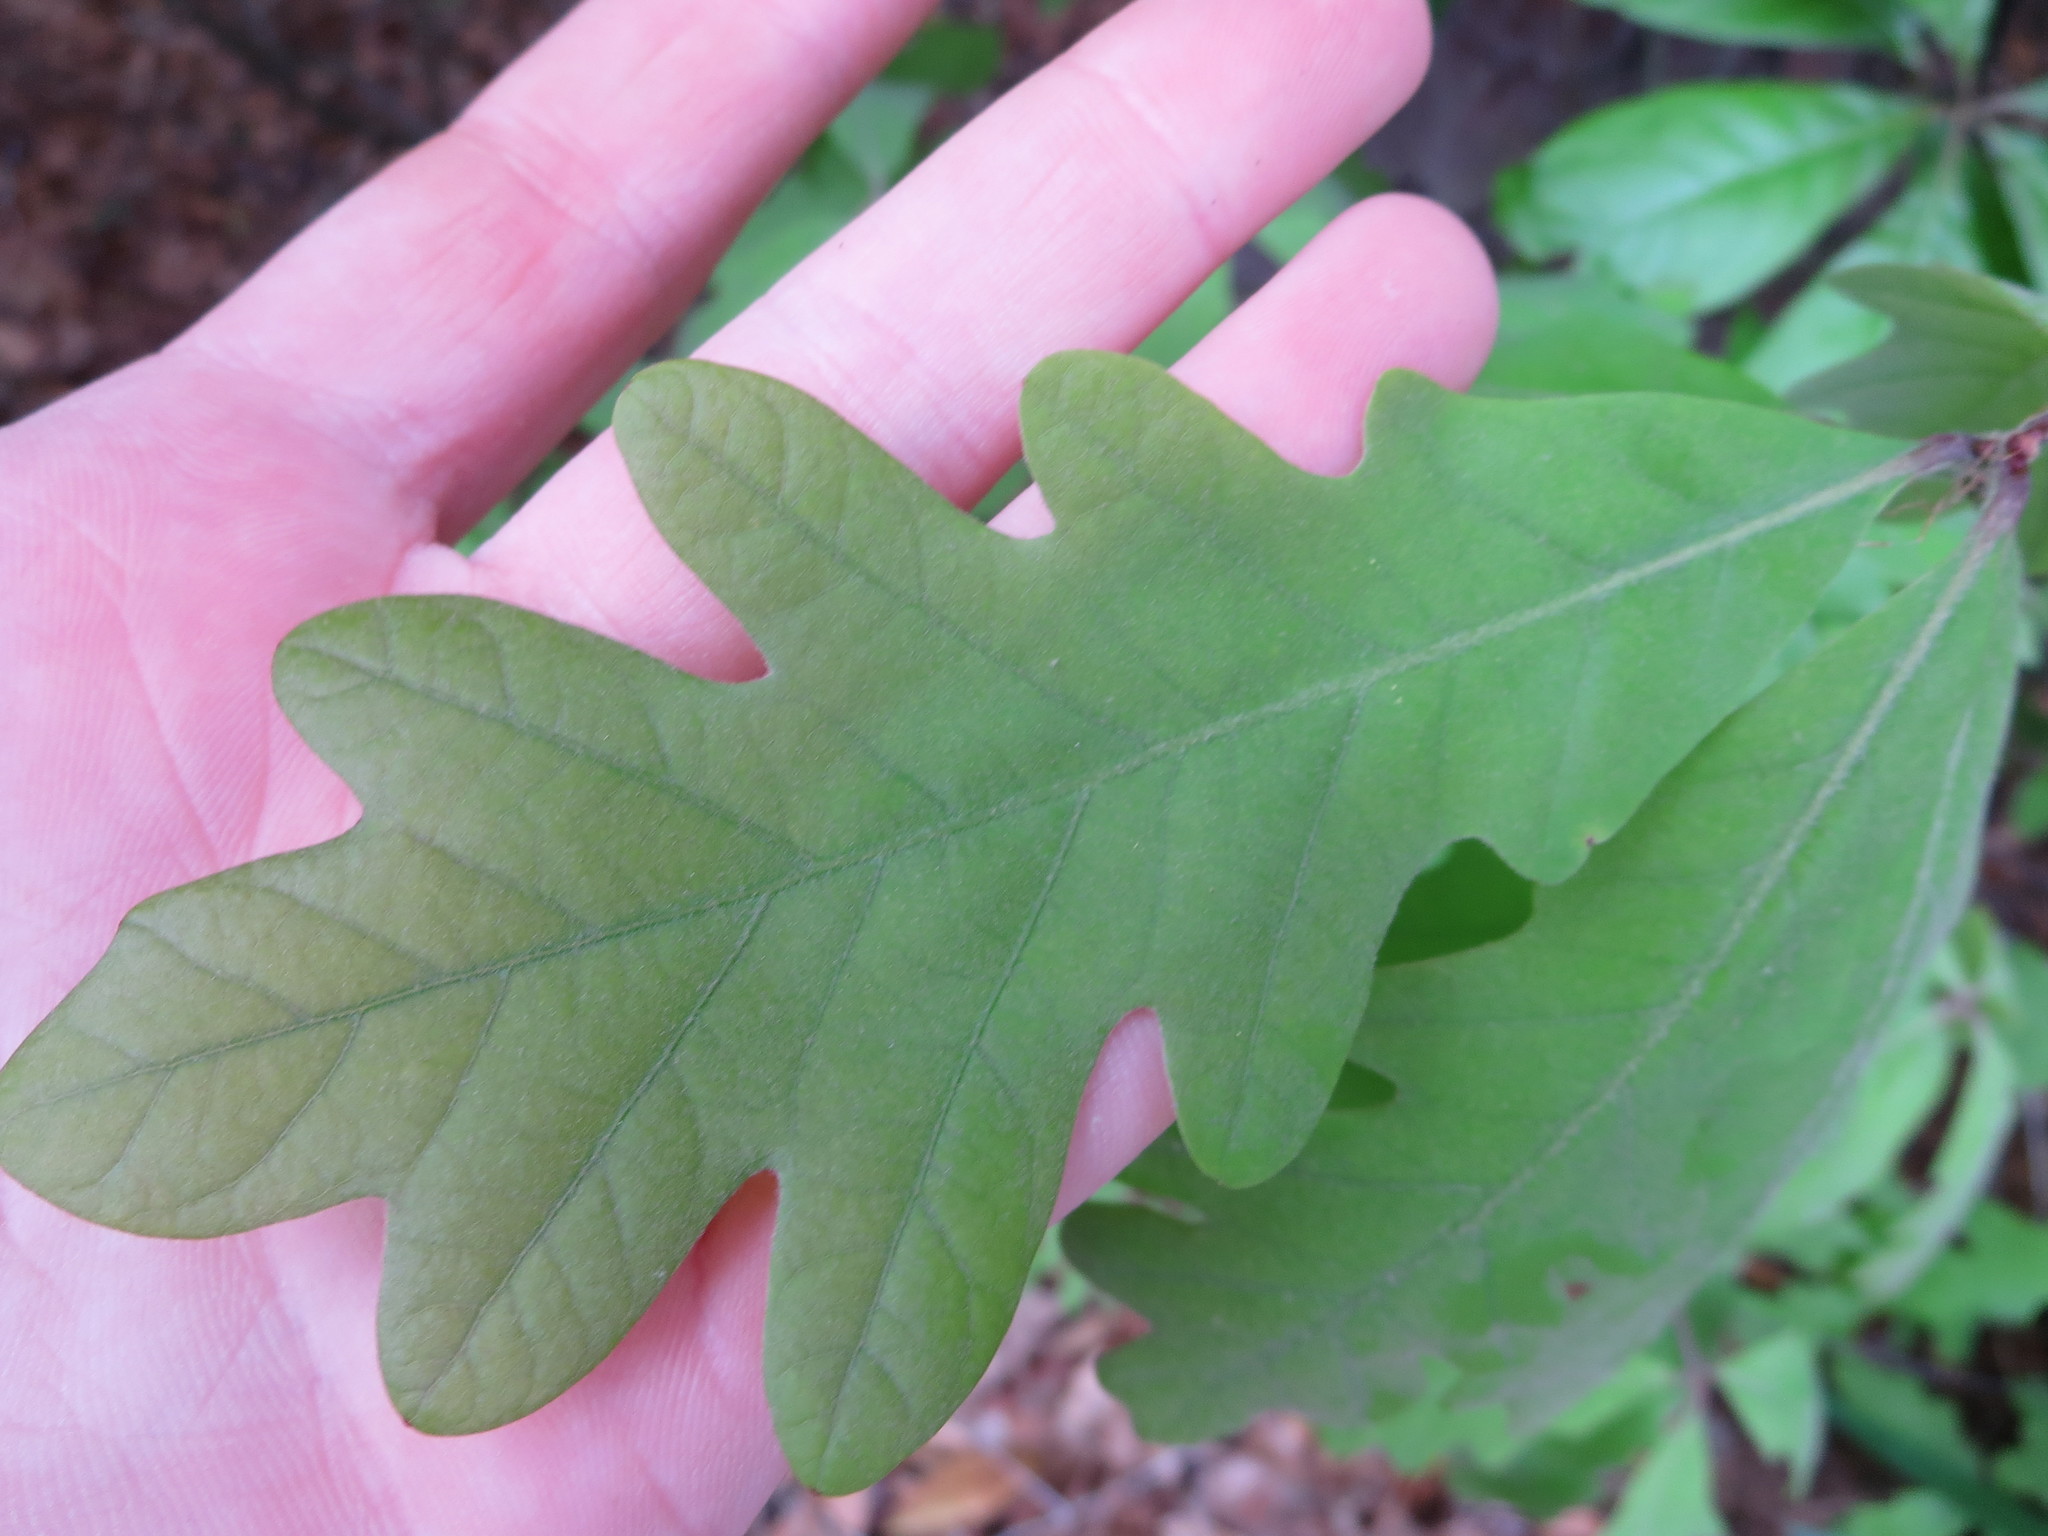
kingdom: Plantae
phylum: Tracheophyta
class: Magnoliopsida
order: Fagales
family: Fagaceae
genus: Quercus
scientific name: Quercus alba
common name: White oak
